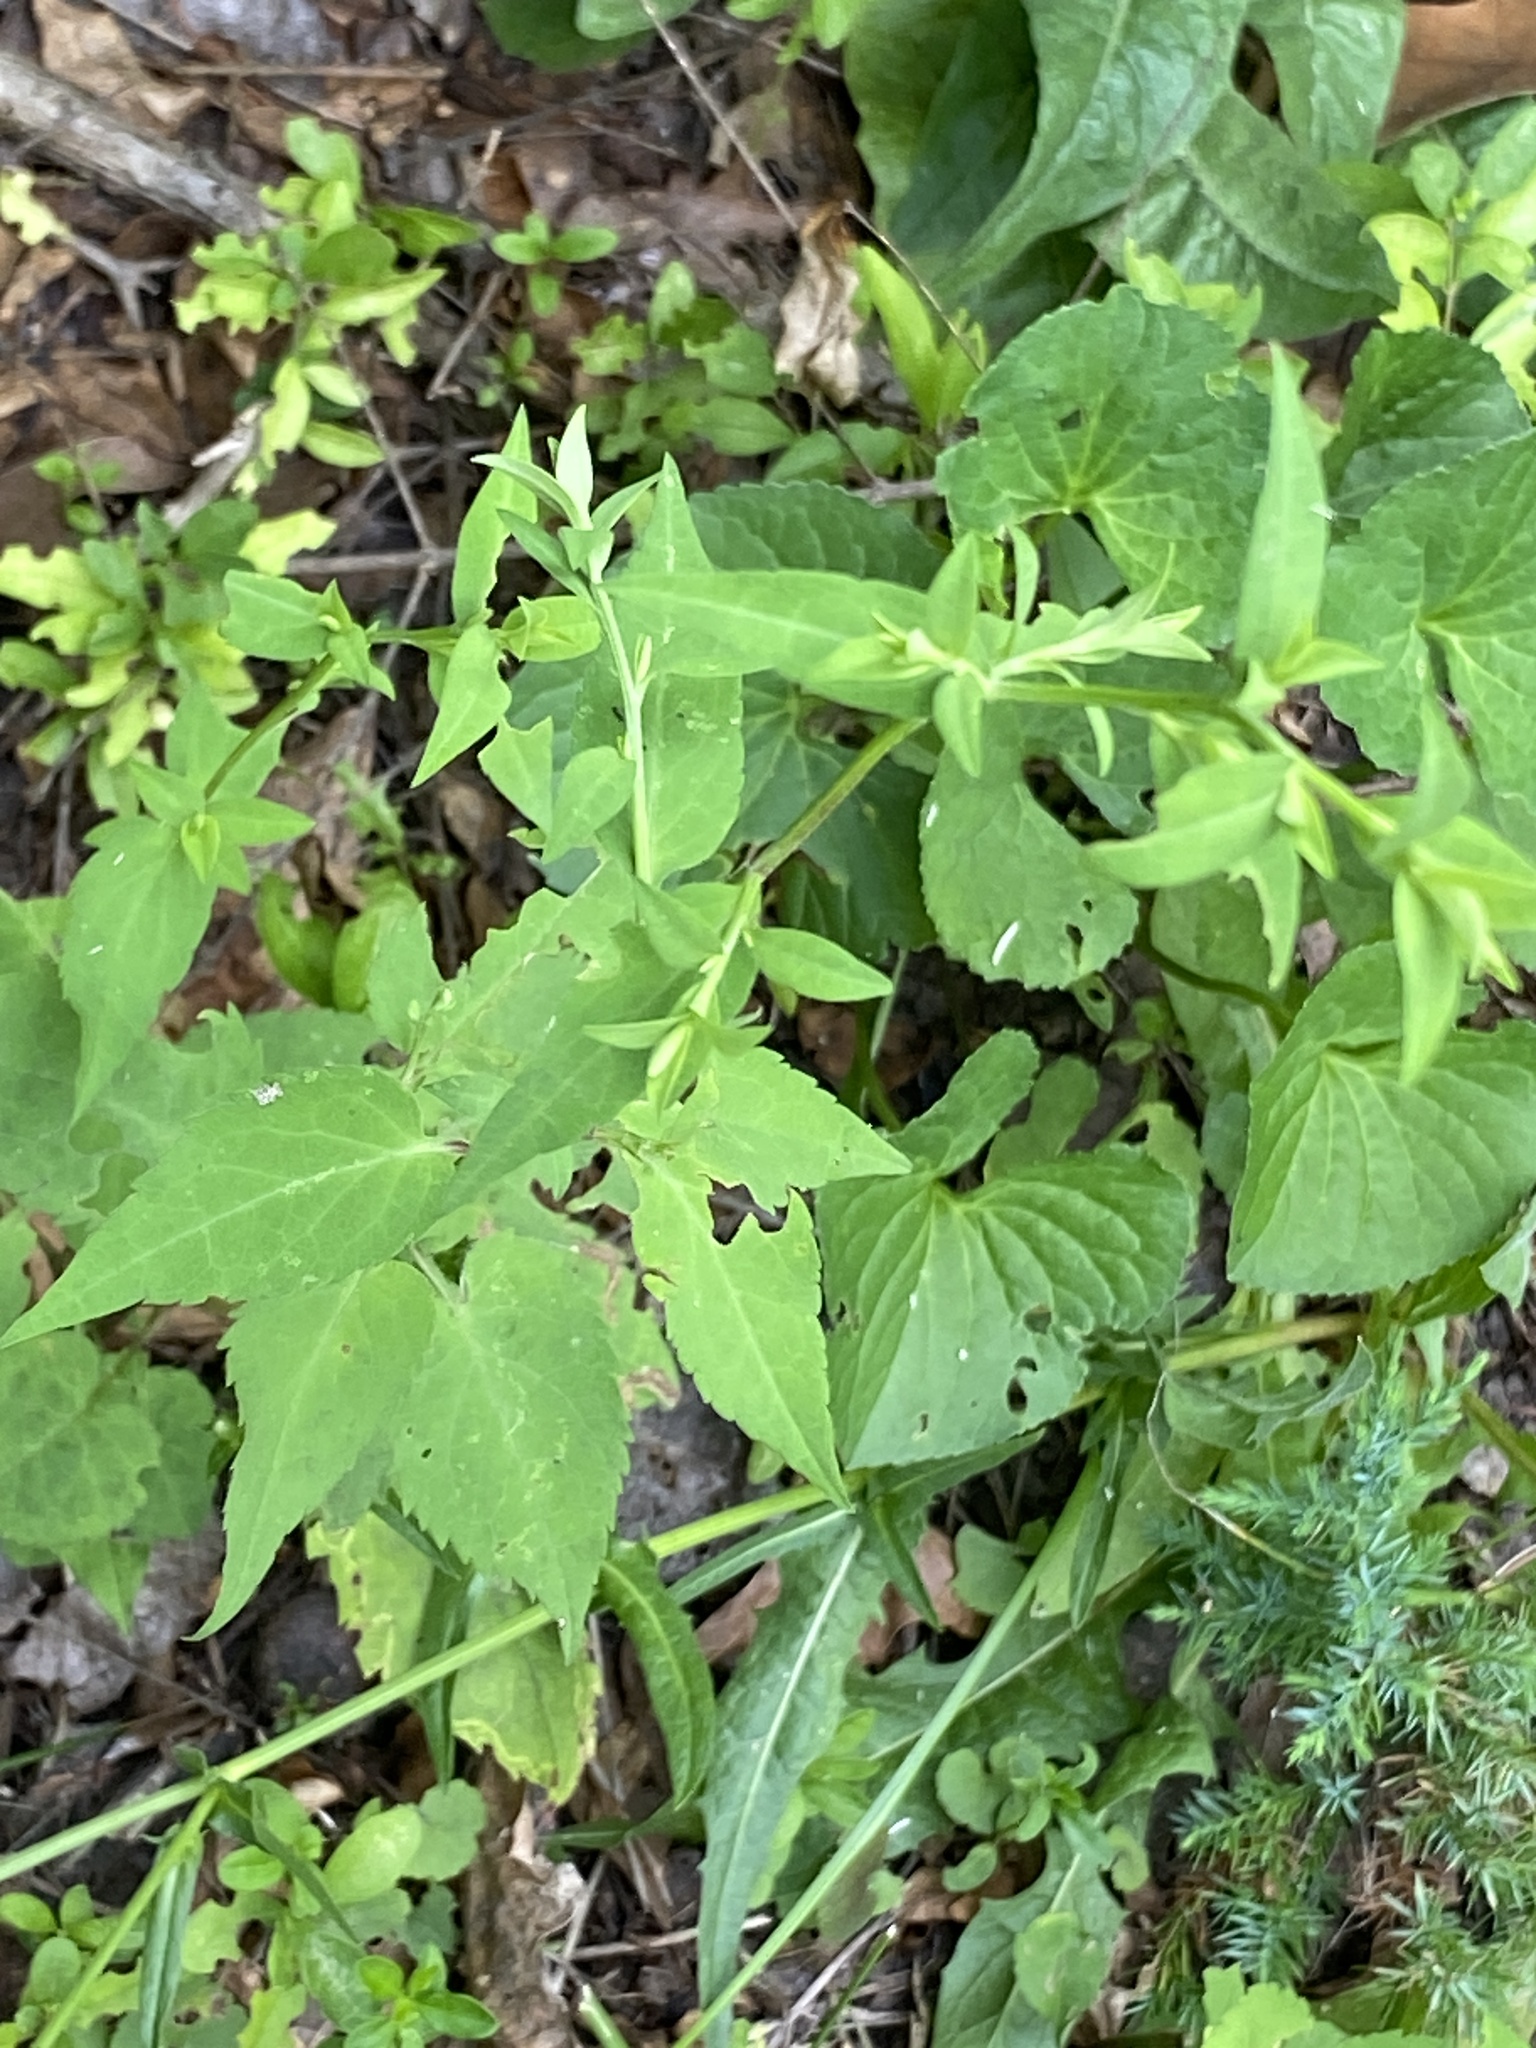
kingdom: Plantae
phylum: Tracheophyta
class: Magnoliopsida
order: Asterales
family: Asteraceae
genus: Symphyotrichum
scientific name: Symphyotrichum cordifolium
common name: Beeweed
